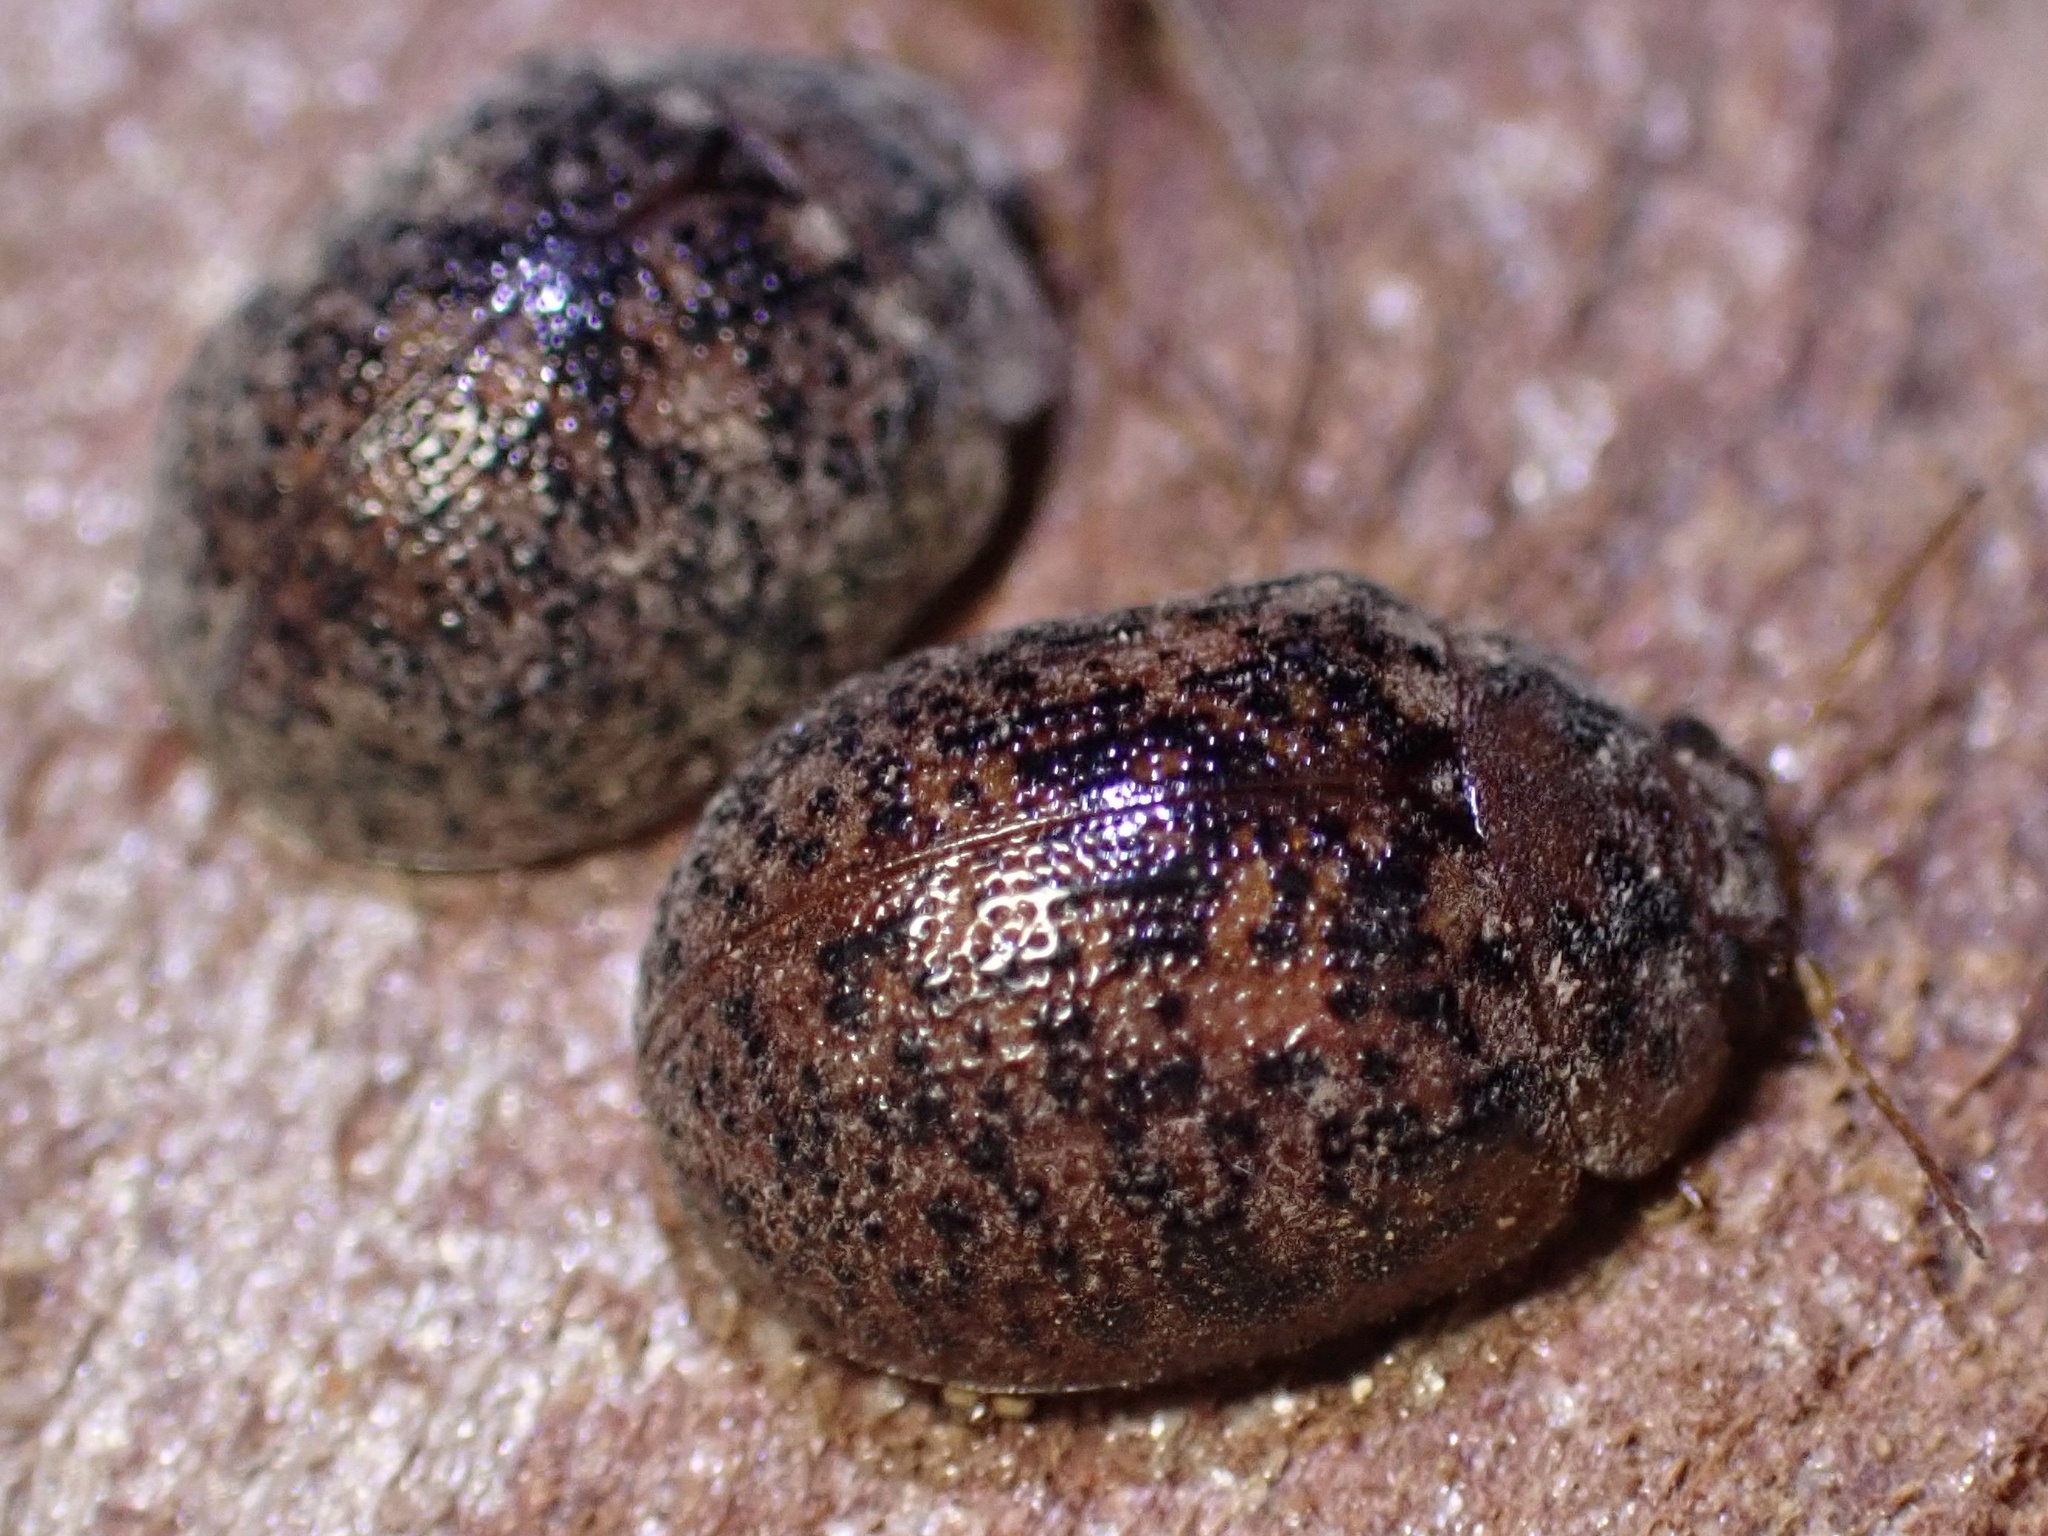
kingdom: Animalia
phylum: Arthropoda
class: Insecta
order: Coleoptera
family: Chrysomelidae
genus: Trachymela
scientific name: Trachymela sloanei
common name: Australian tortoise beetle
